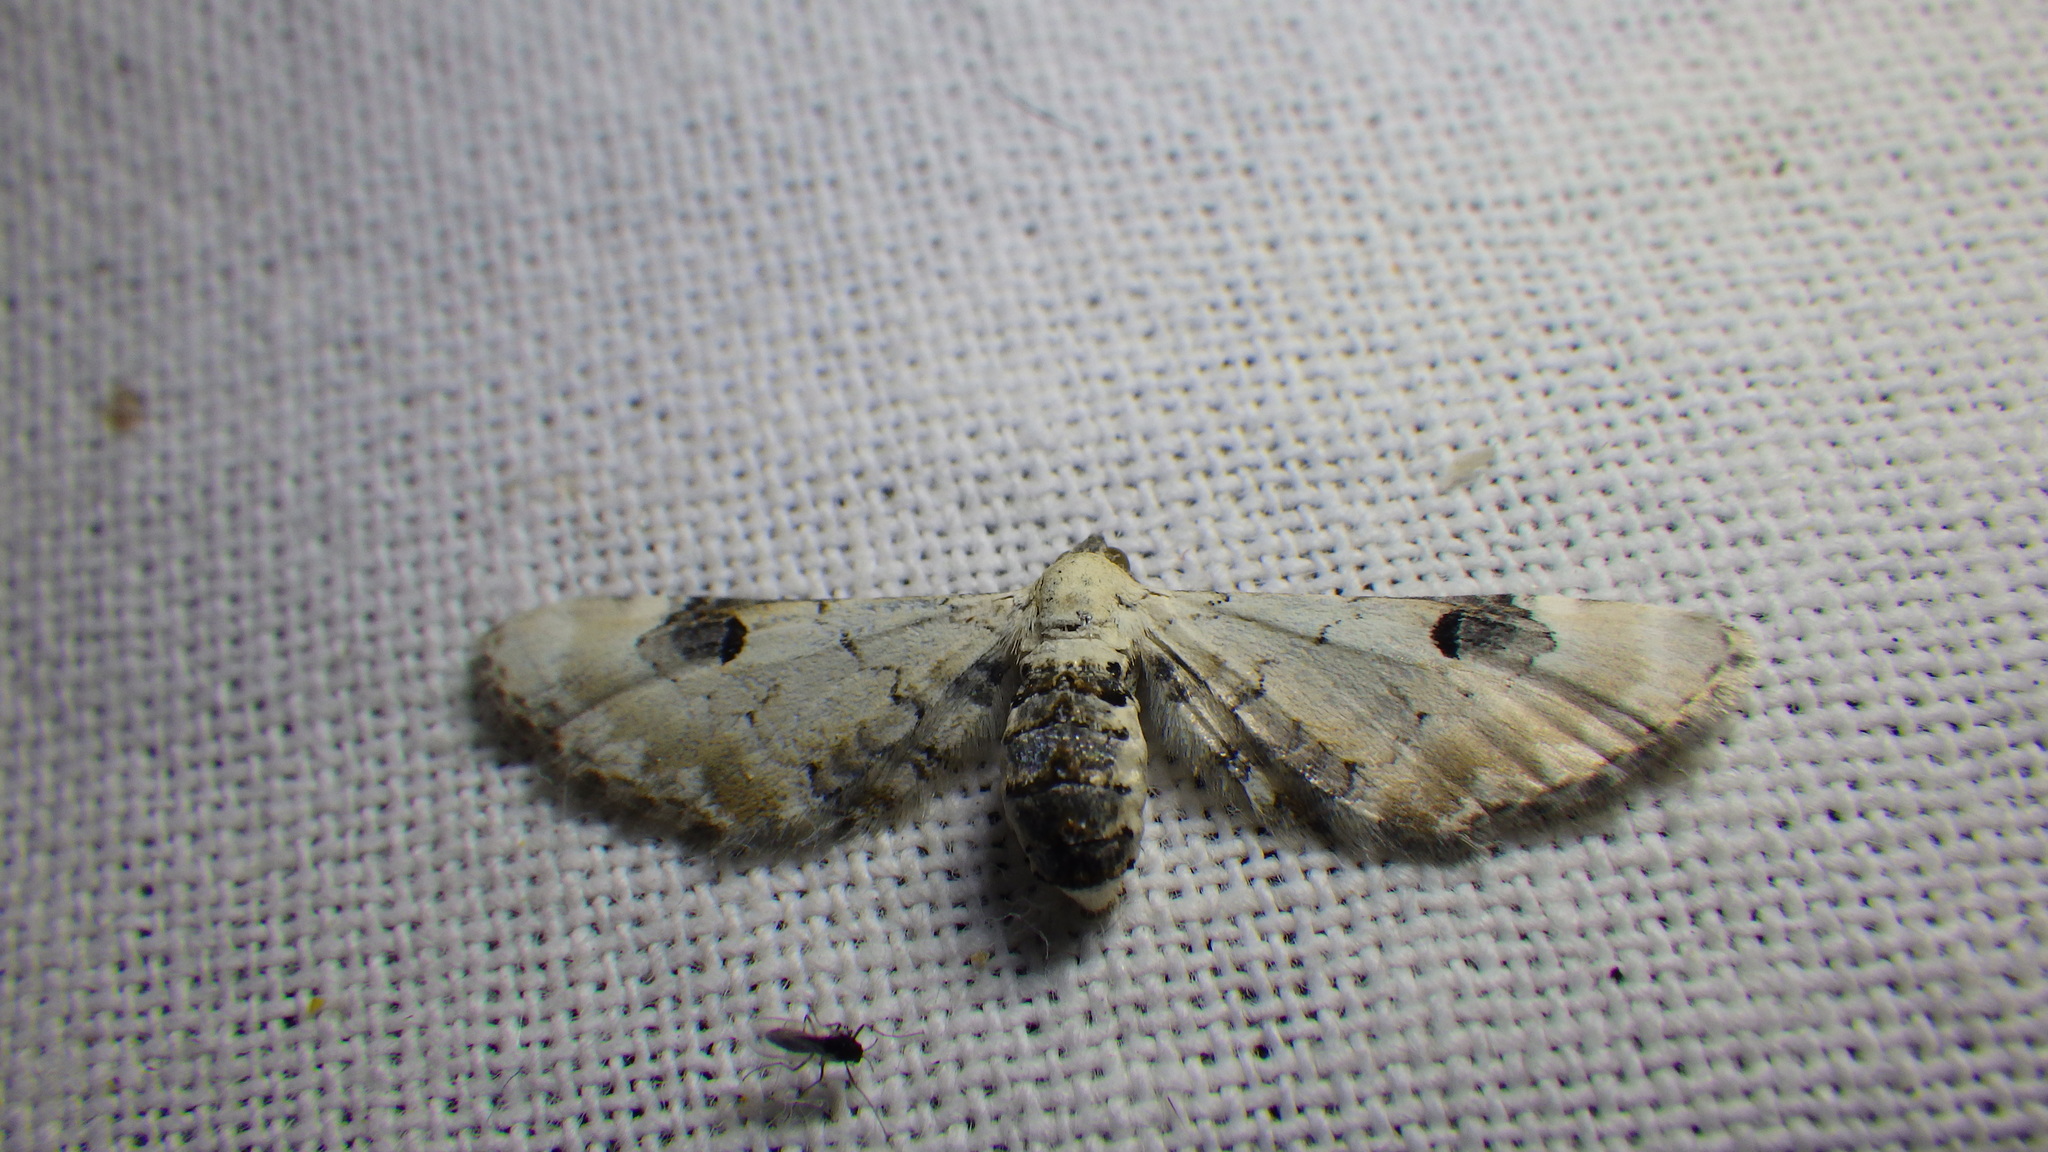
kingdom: Animalia
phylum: Arthropoda
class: Insecta
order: Lepidoptera
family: Geometridae
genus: Eupithecia
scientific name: Eupithecia centaureata
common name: Lime-speck pug
